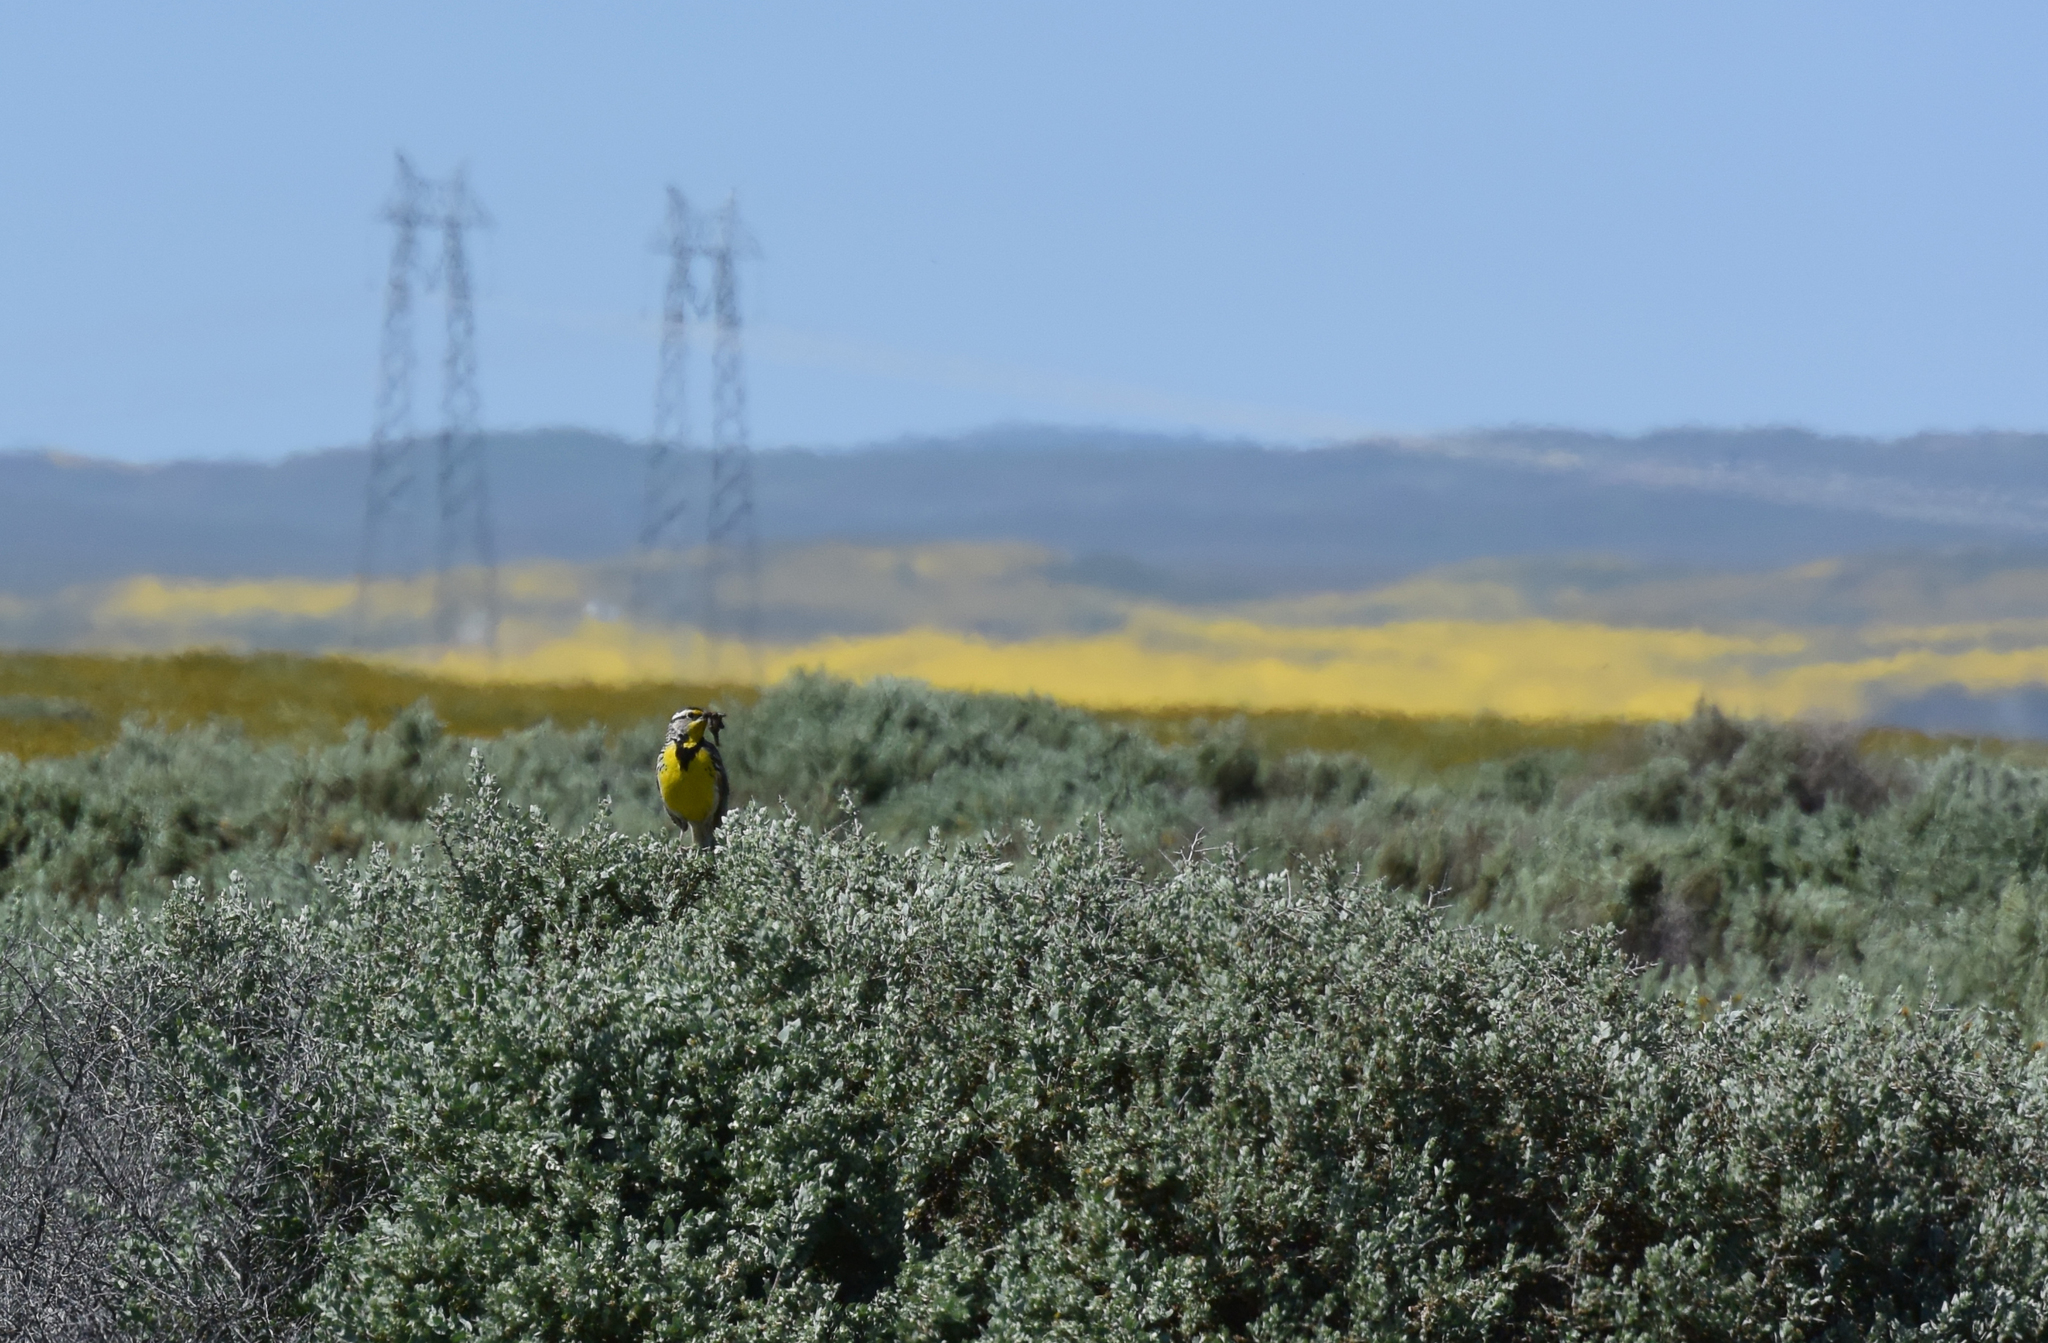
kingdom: Animalia
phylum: Chordata
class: Aves
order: Passeriformes
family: Icteridae
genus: Sturnella
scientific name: Sturnella neglecta
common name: Western meadowlark
